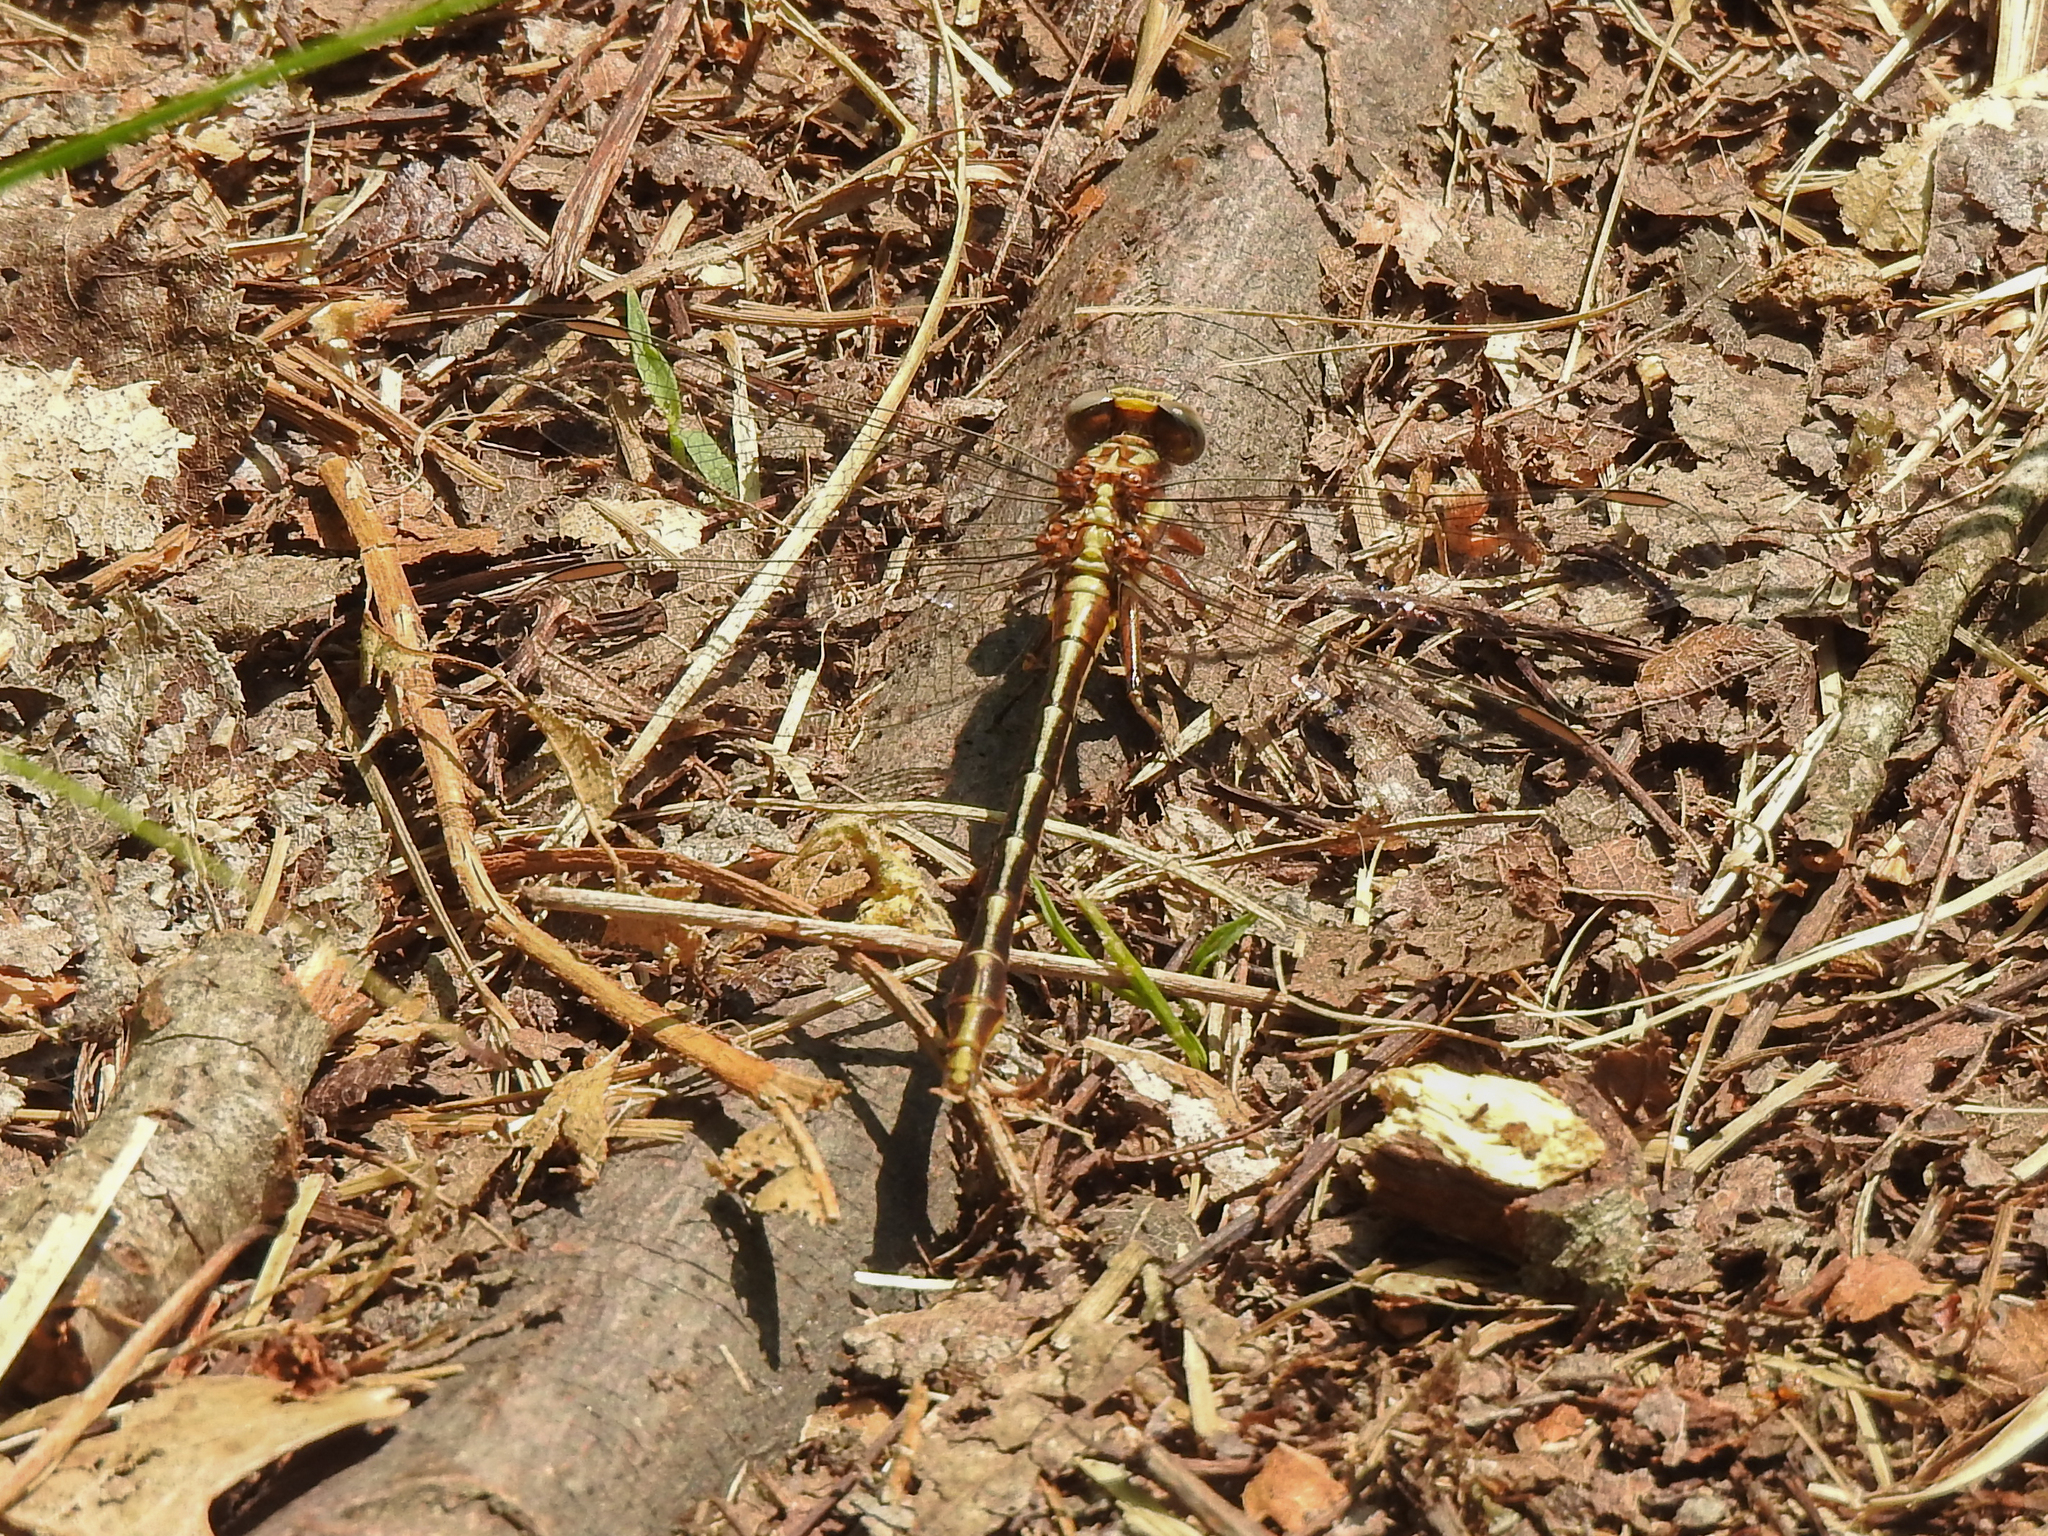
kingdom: Animalia
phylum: Arthropoda
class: Insecta
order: Odonata
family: Gomphidae
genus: Phanogomphus
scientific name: Phanogomphus exilis
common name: Lancet clubtail
